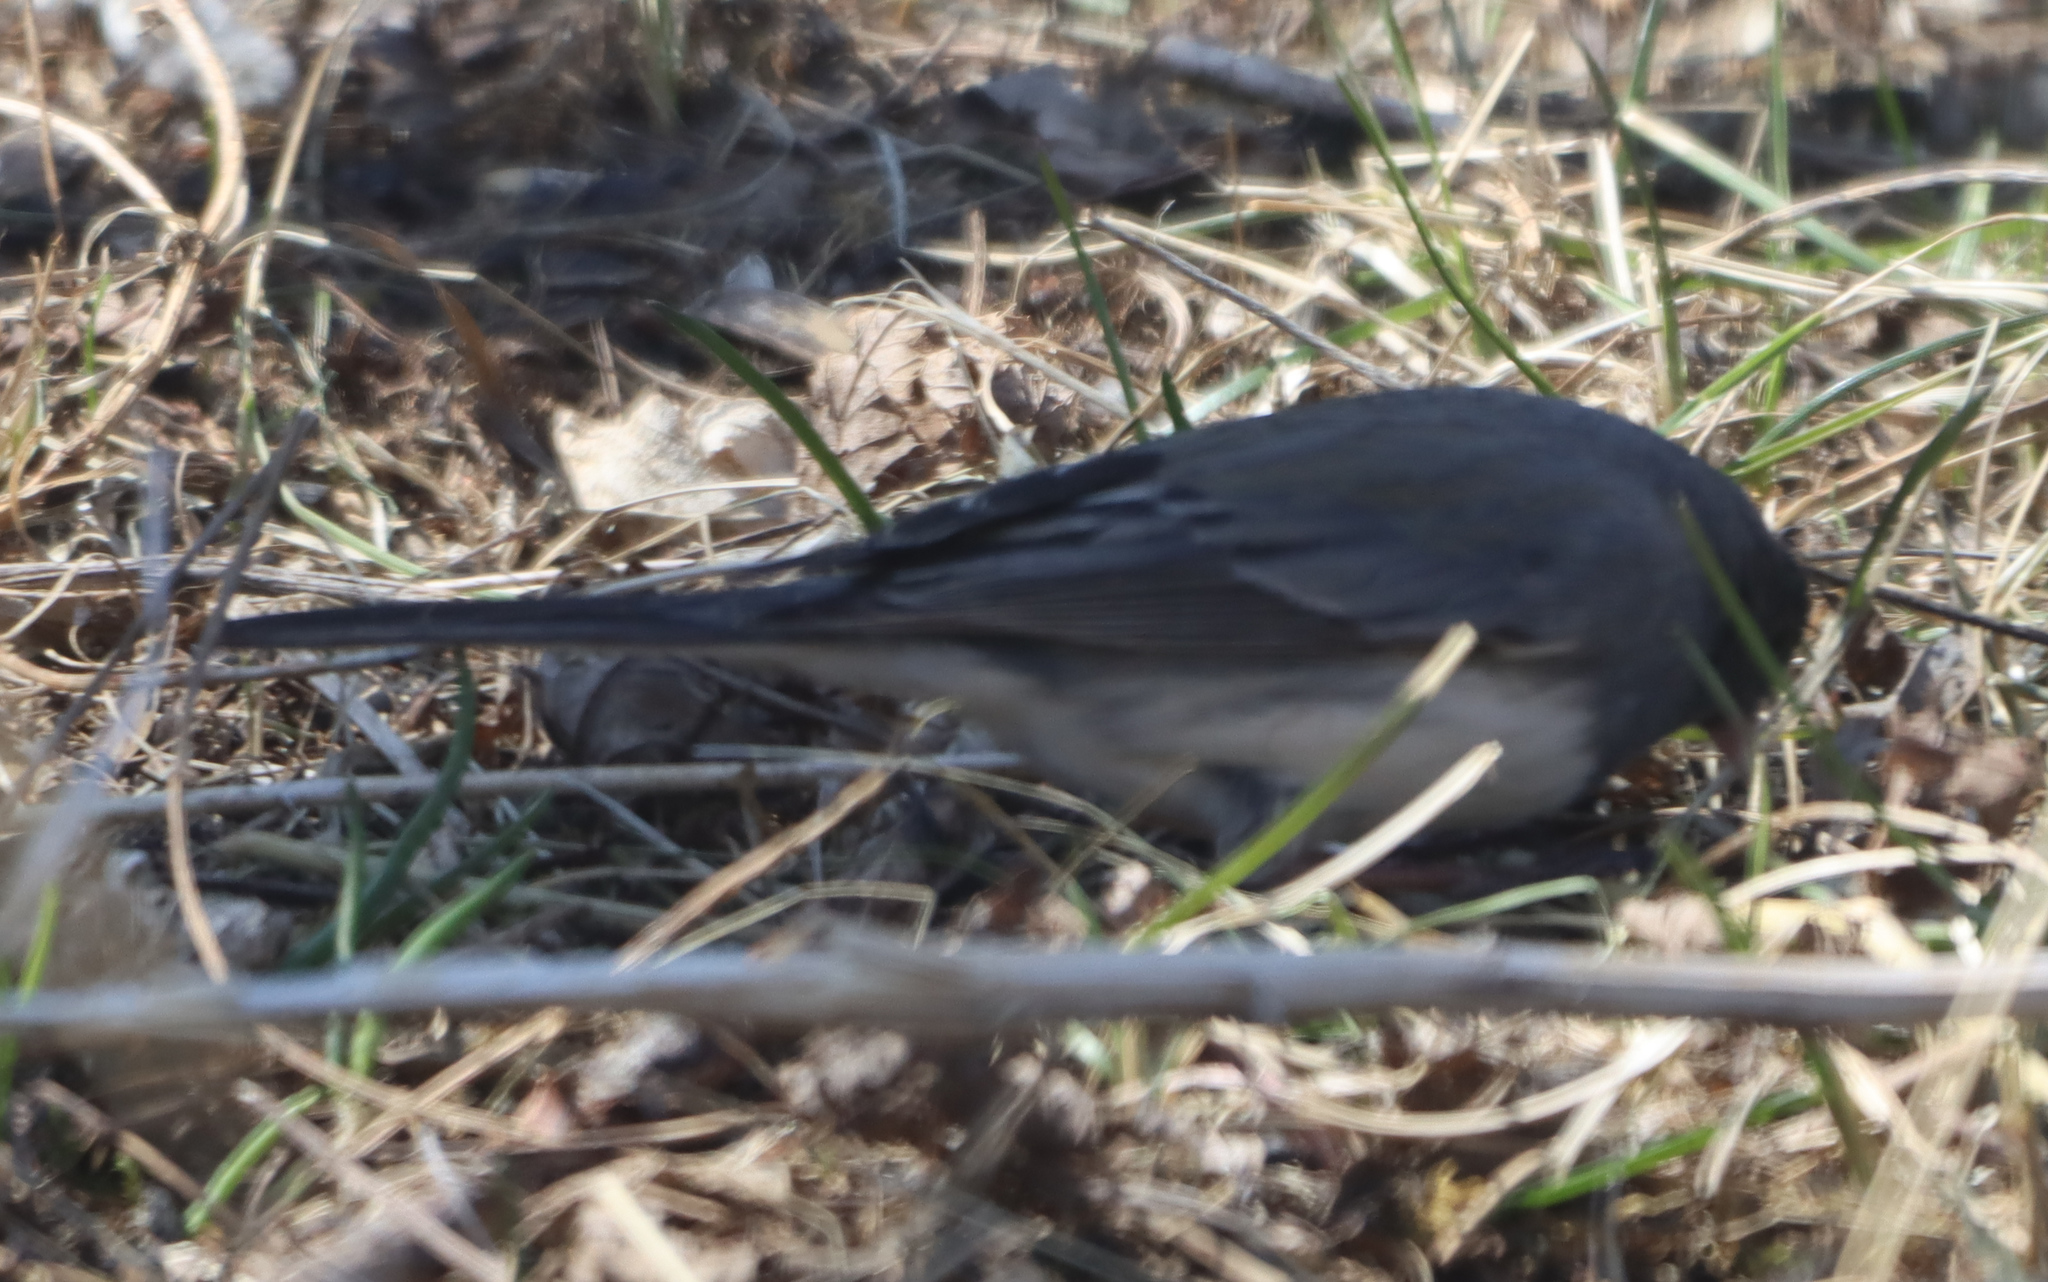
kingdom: Animalia
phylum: Chordata
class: Aves
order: Passeriformes
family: Passerellidae
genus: Junco
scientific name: Junco hyemalis
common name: Dark-eyed junco
